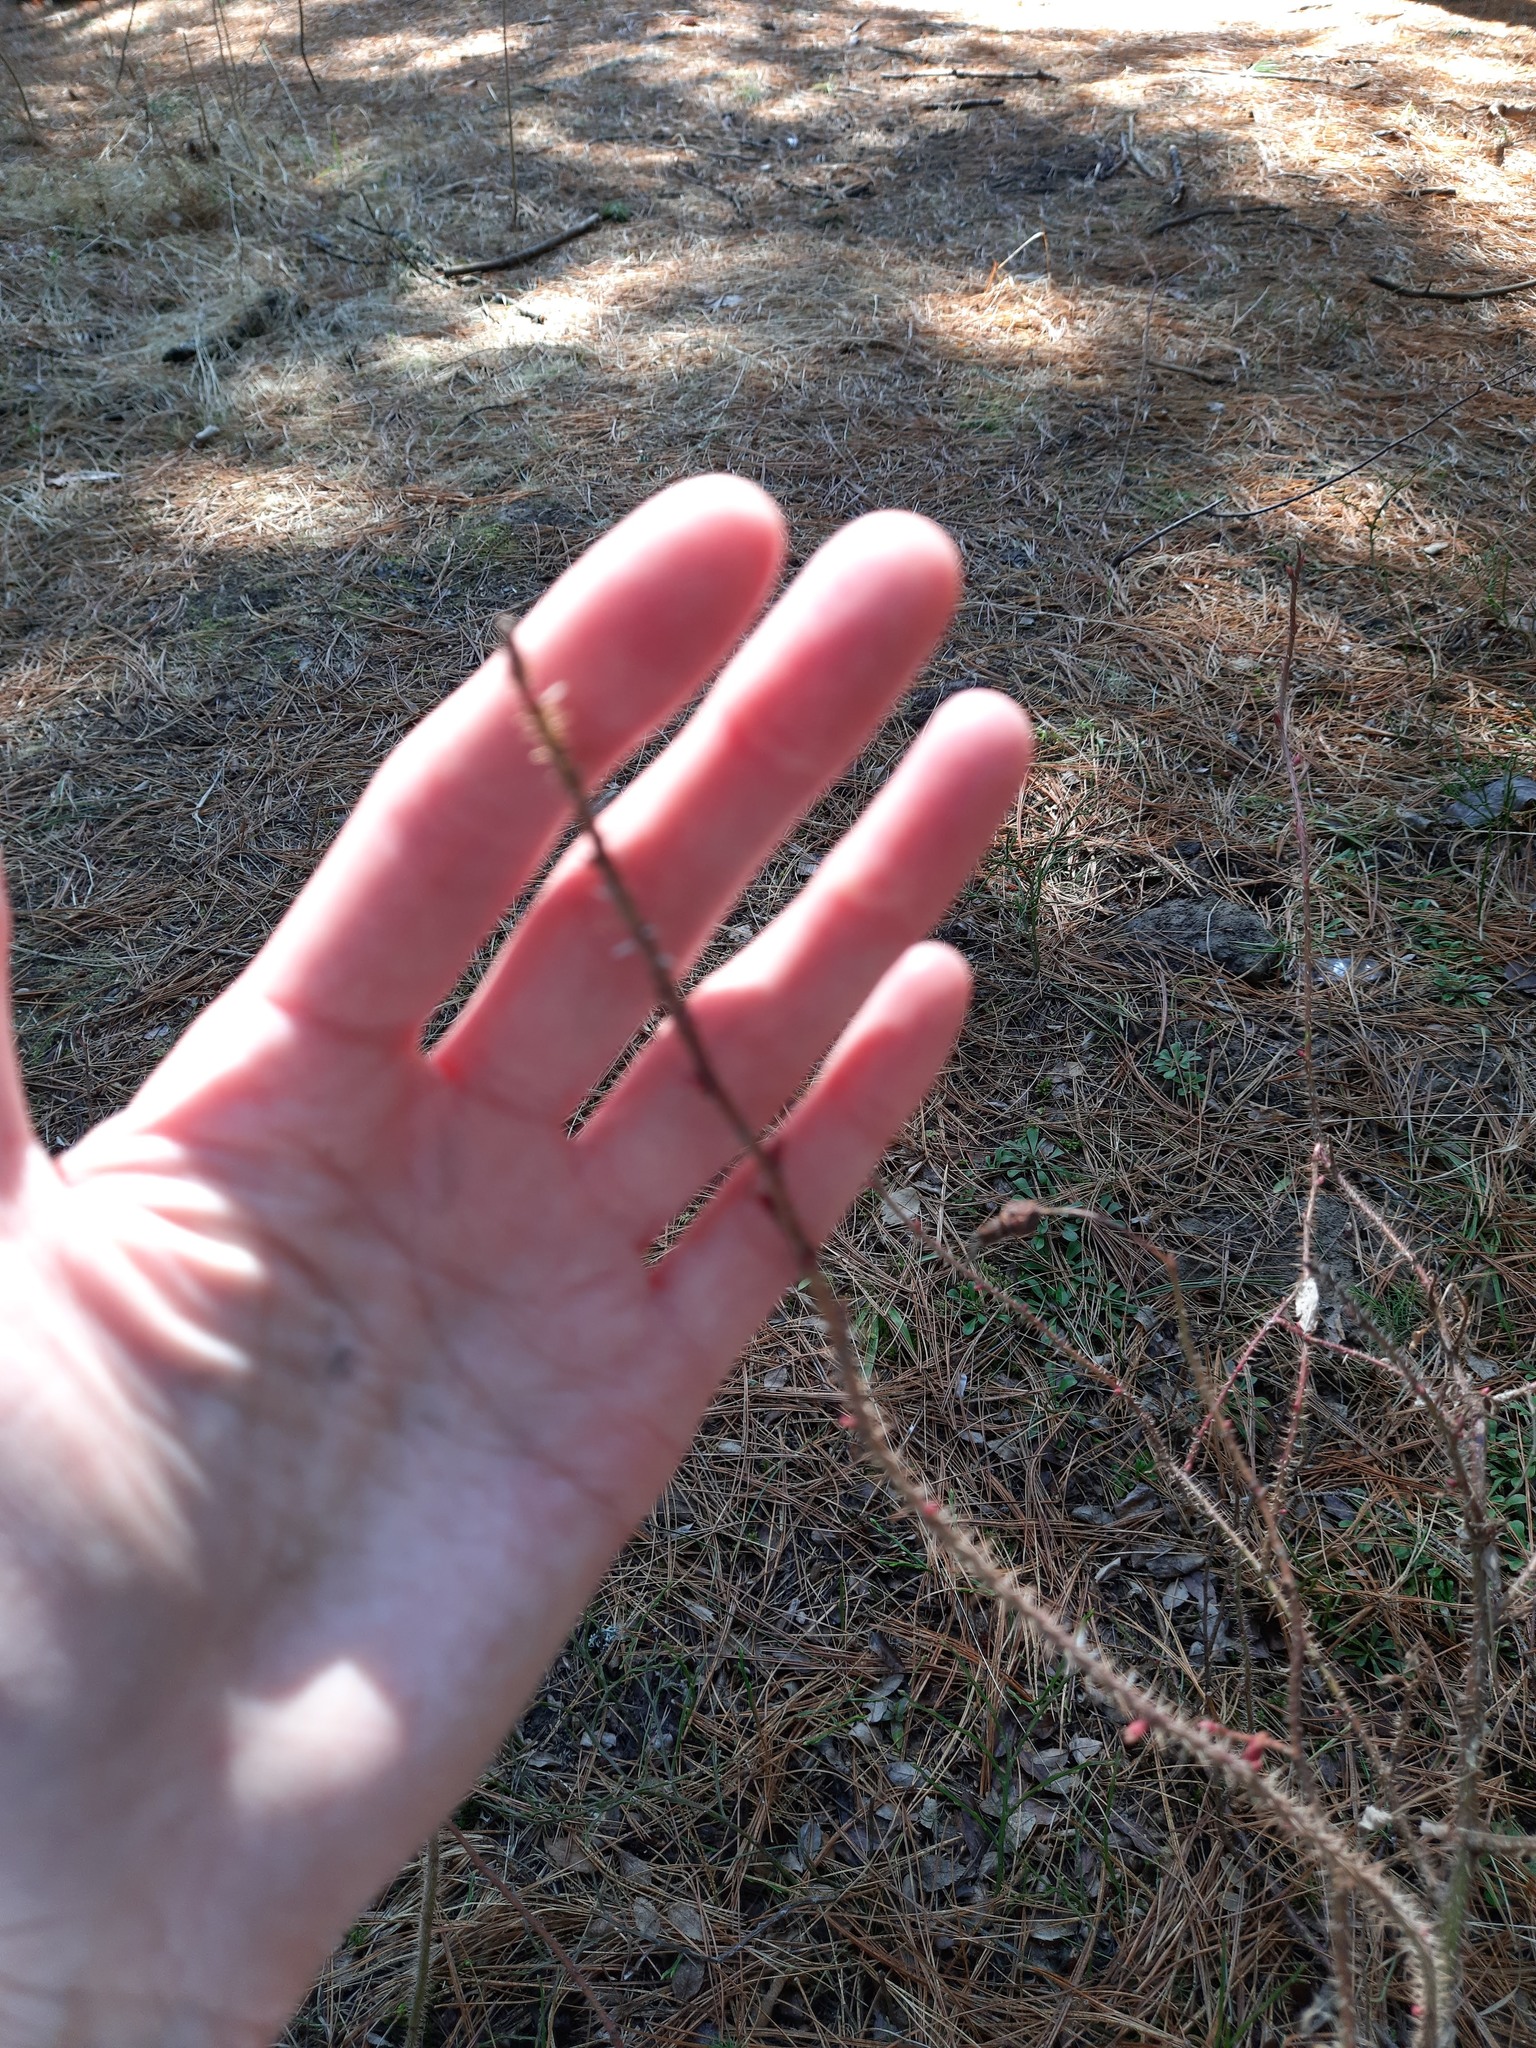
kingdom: Plantae
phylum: Tracheophyta
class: Magnoliopsida
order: Rosales
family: Rosaceae
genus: Rosa
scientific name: Rosa acicularis
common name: Prickly rose
